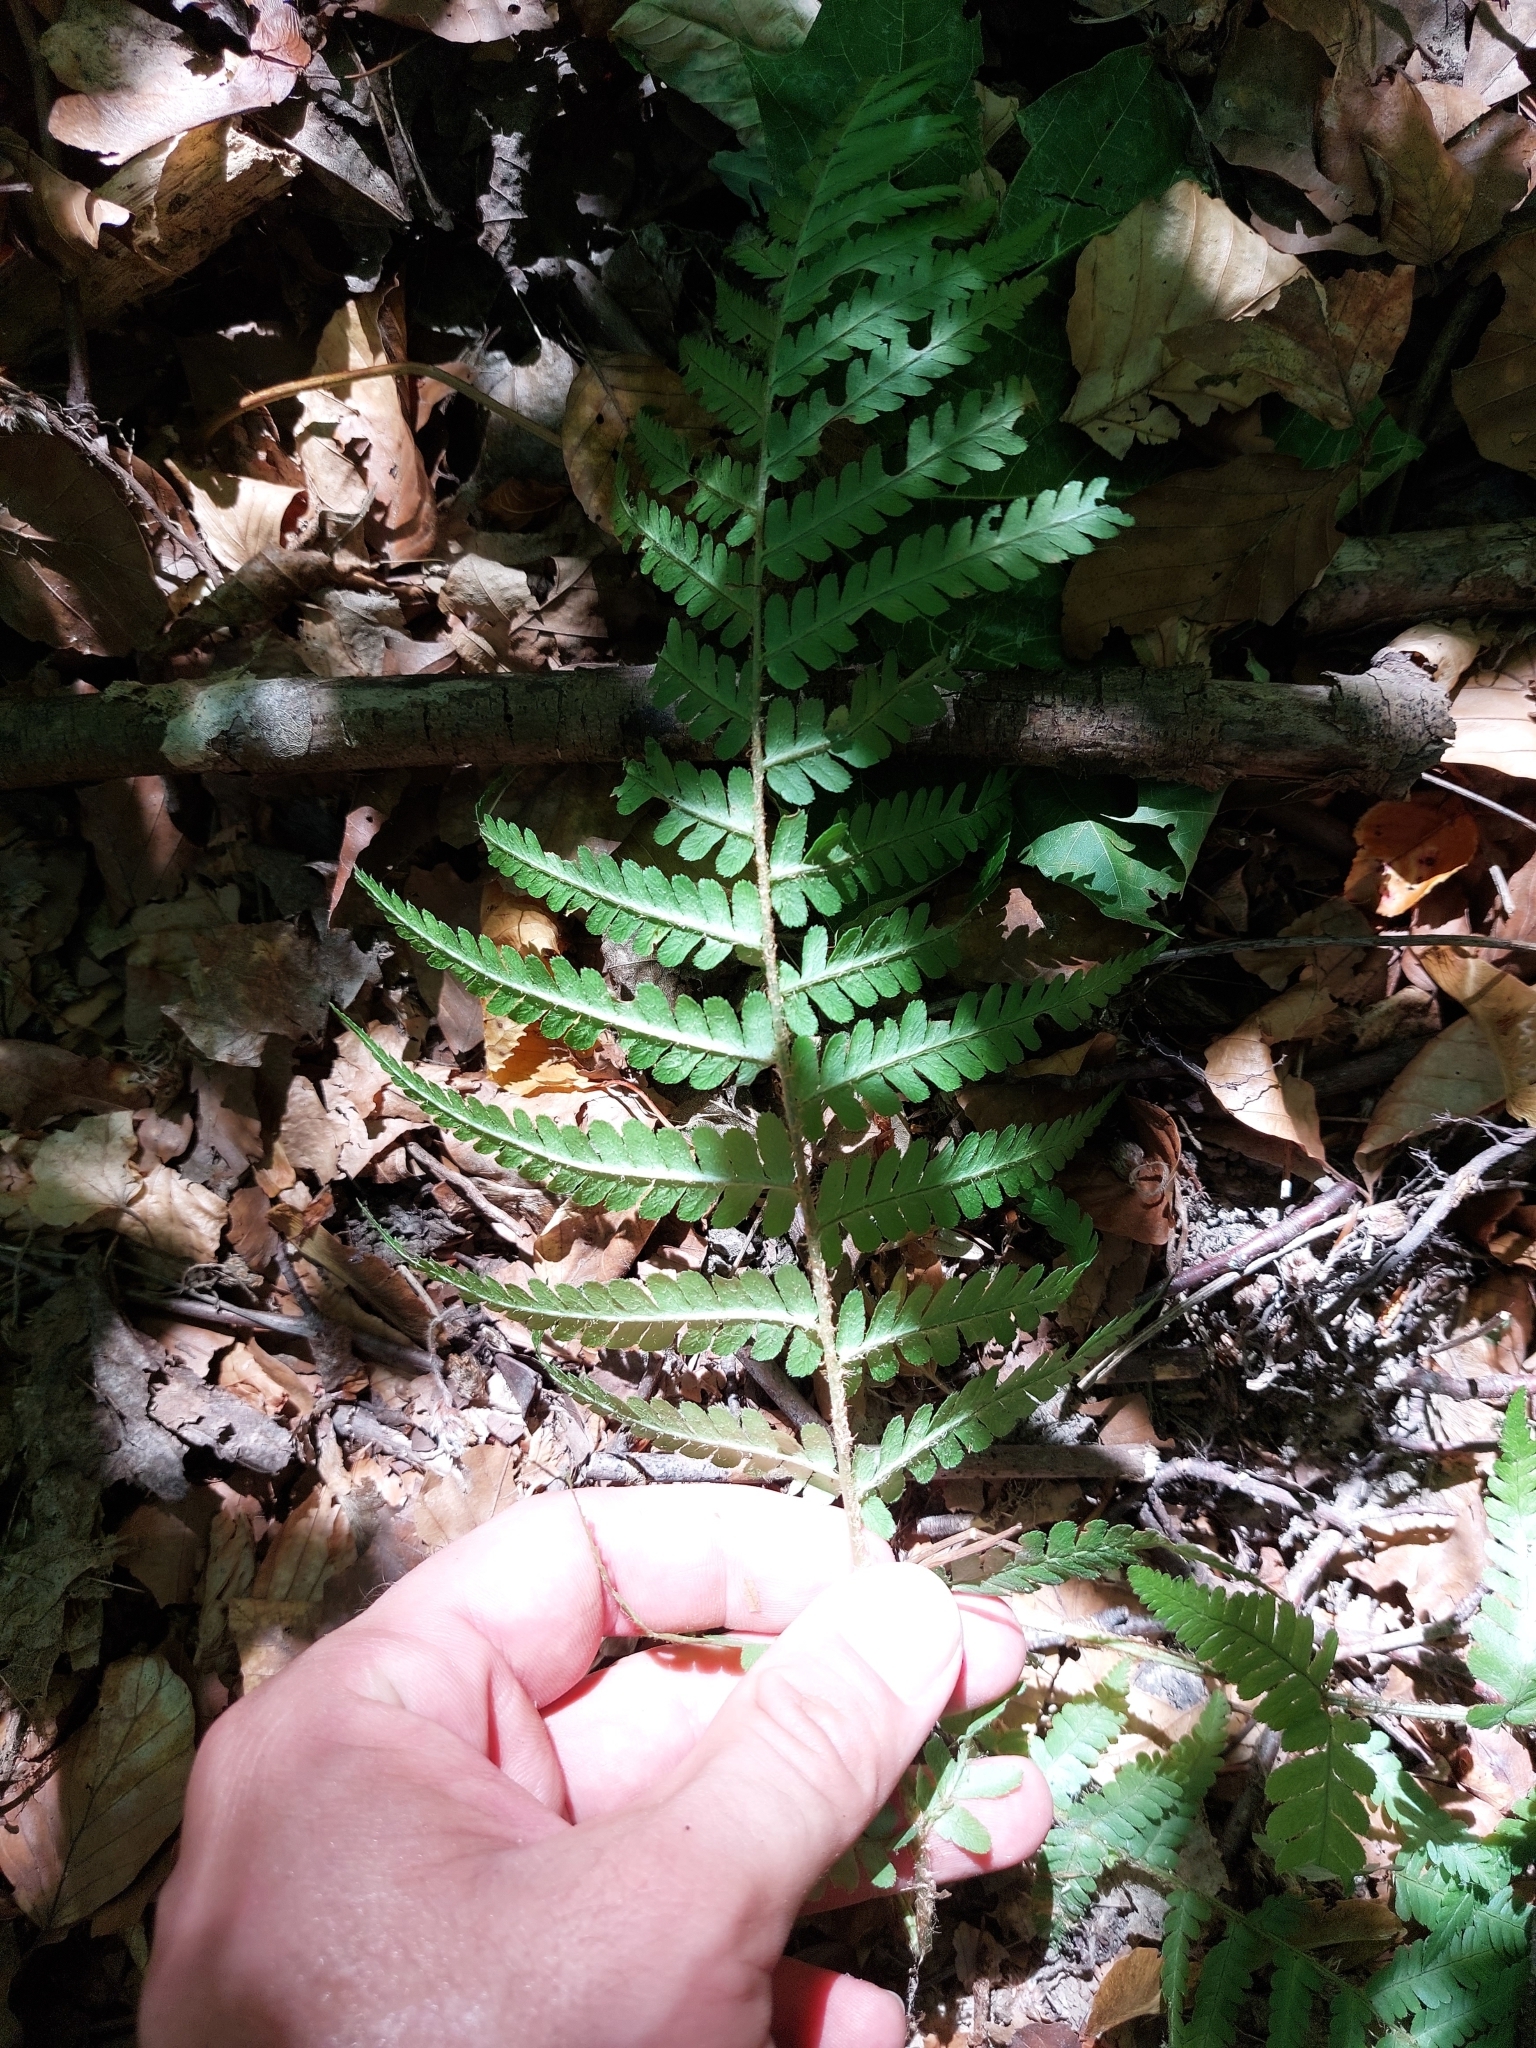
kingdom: Plantae
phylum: Tracheophyta
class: Polypodiopsida
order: Polypodiales
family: Dryopteridaceae
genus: Dryopteris
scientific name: Dryopteris filix-mas
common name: Male fern
